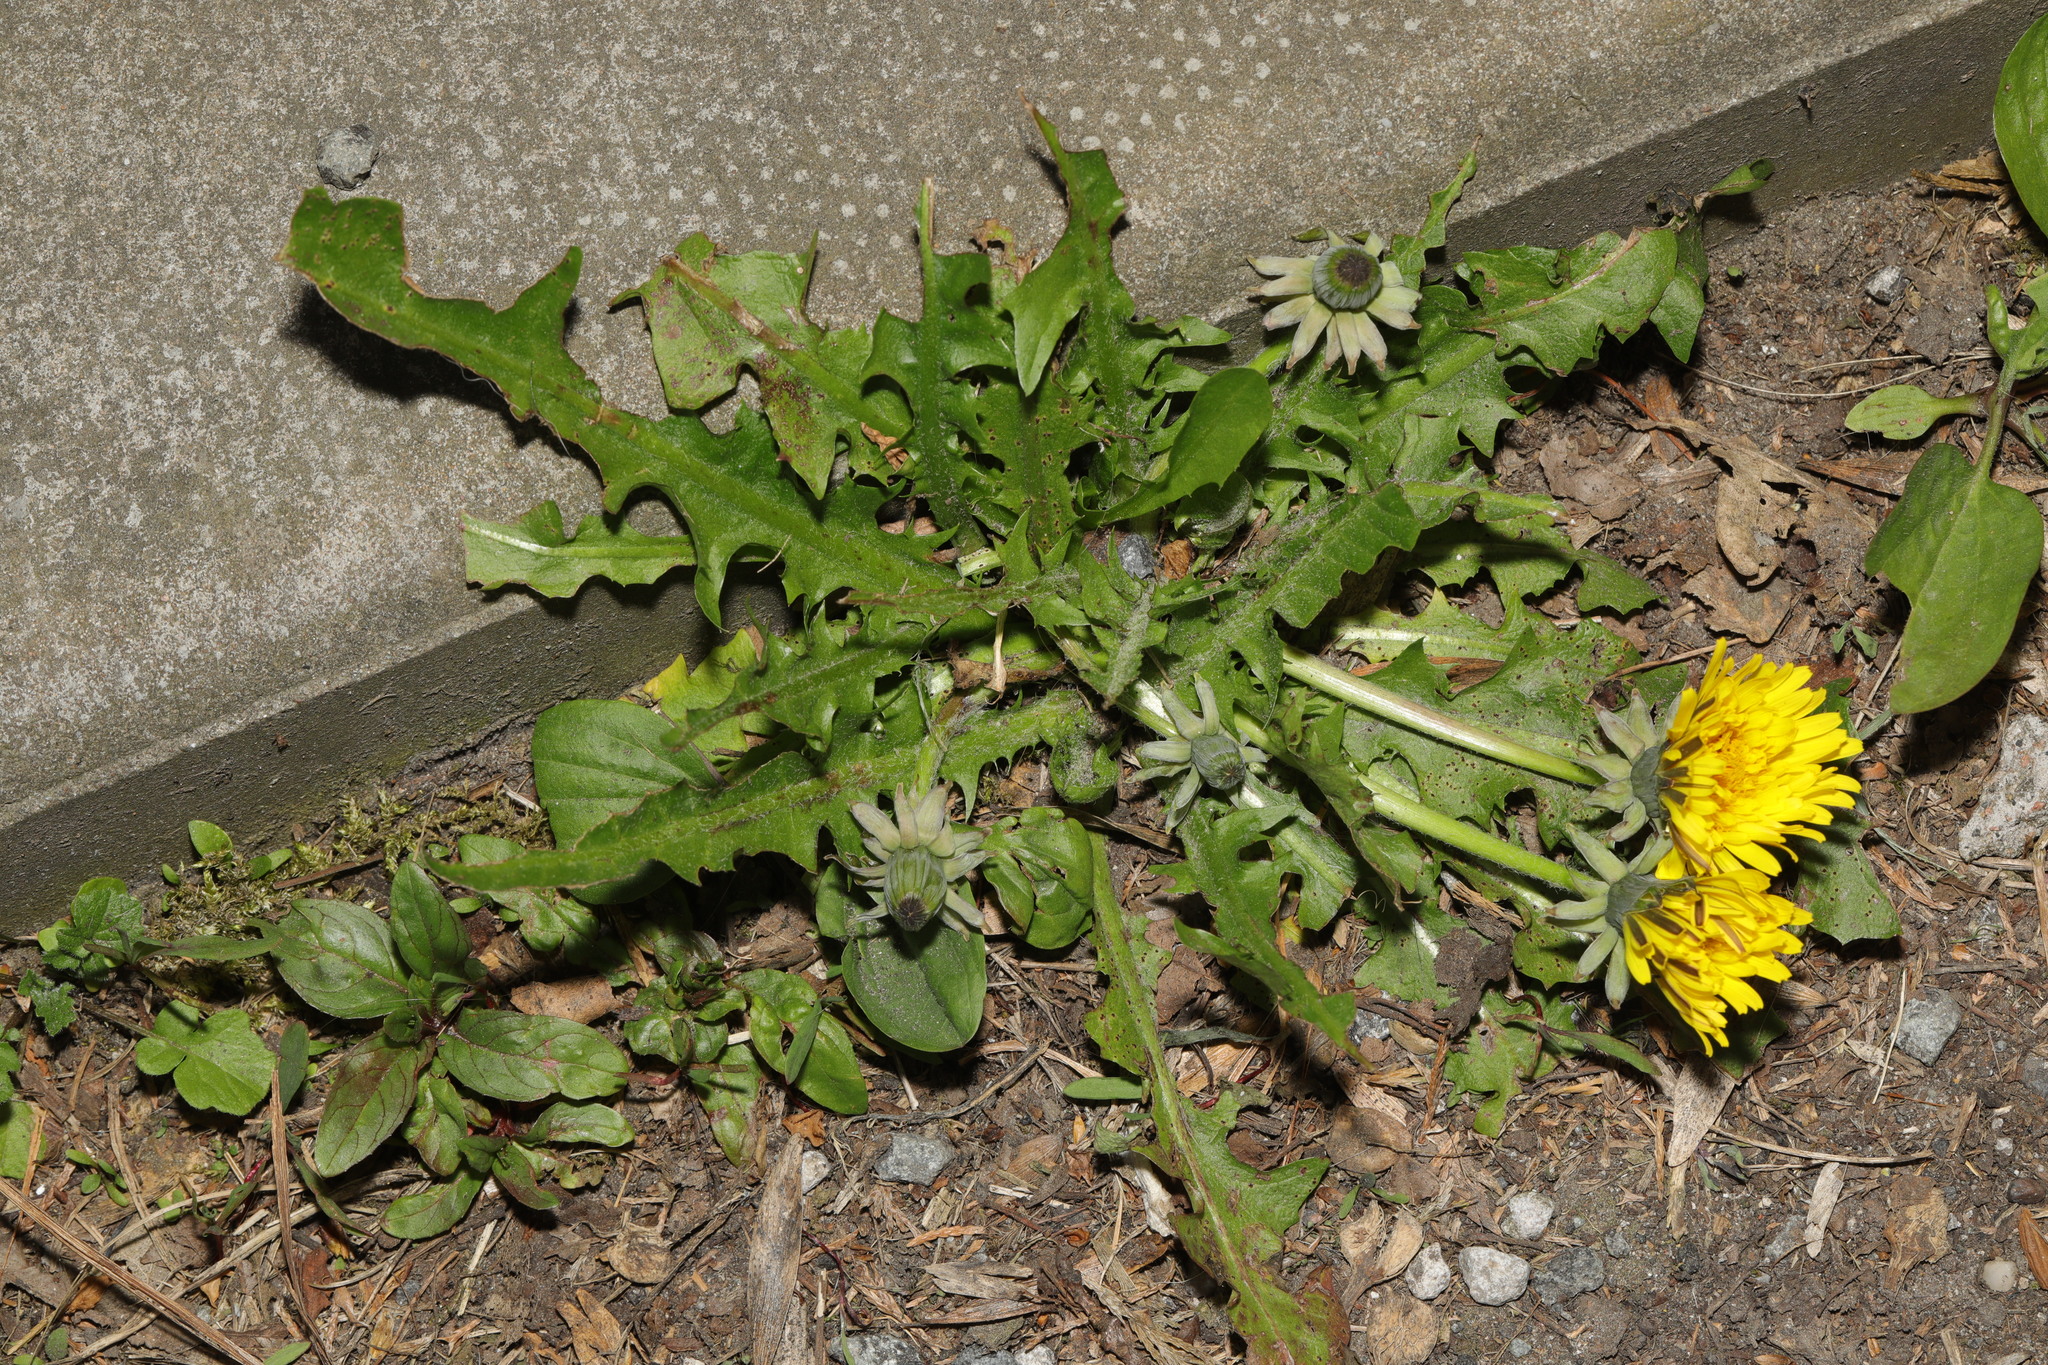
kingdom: Plantae
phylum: Tracheophyta
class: Magnoliopsida
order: Asterales
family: Asteraceae
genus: Taraxacum
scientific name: Taraxacum officinale
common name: Common dandelion
